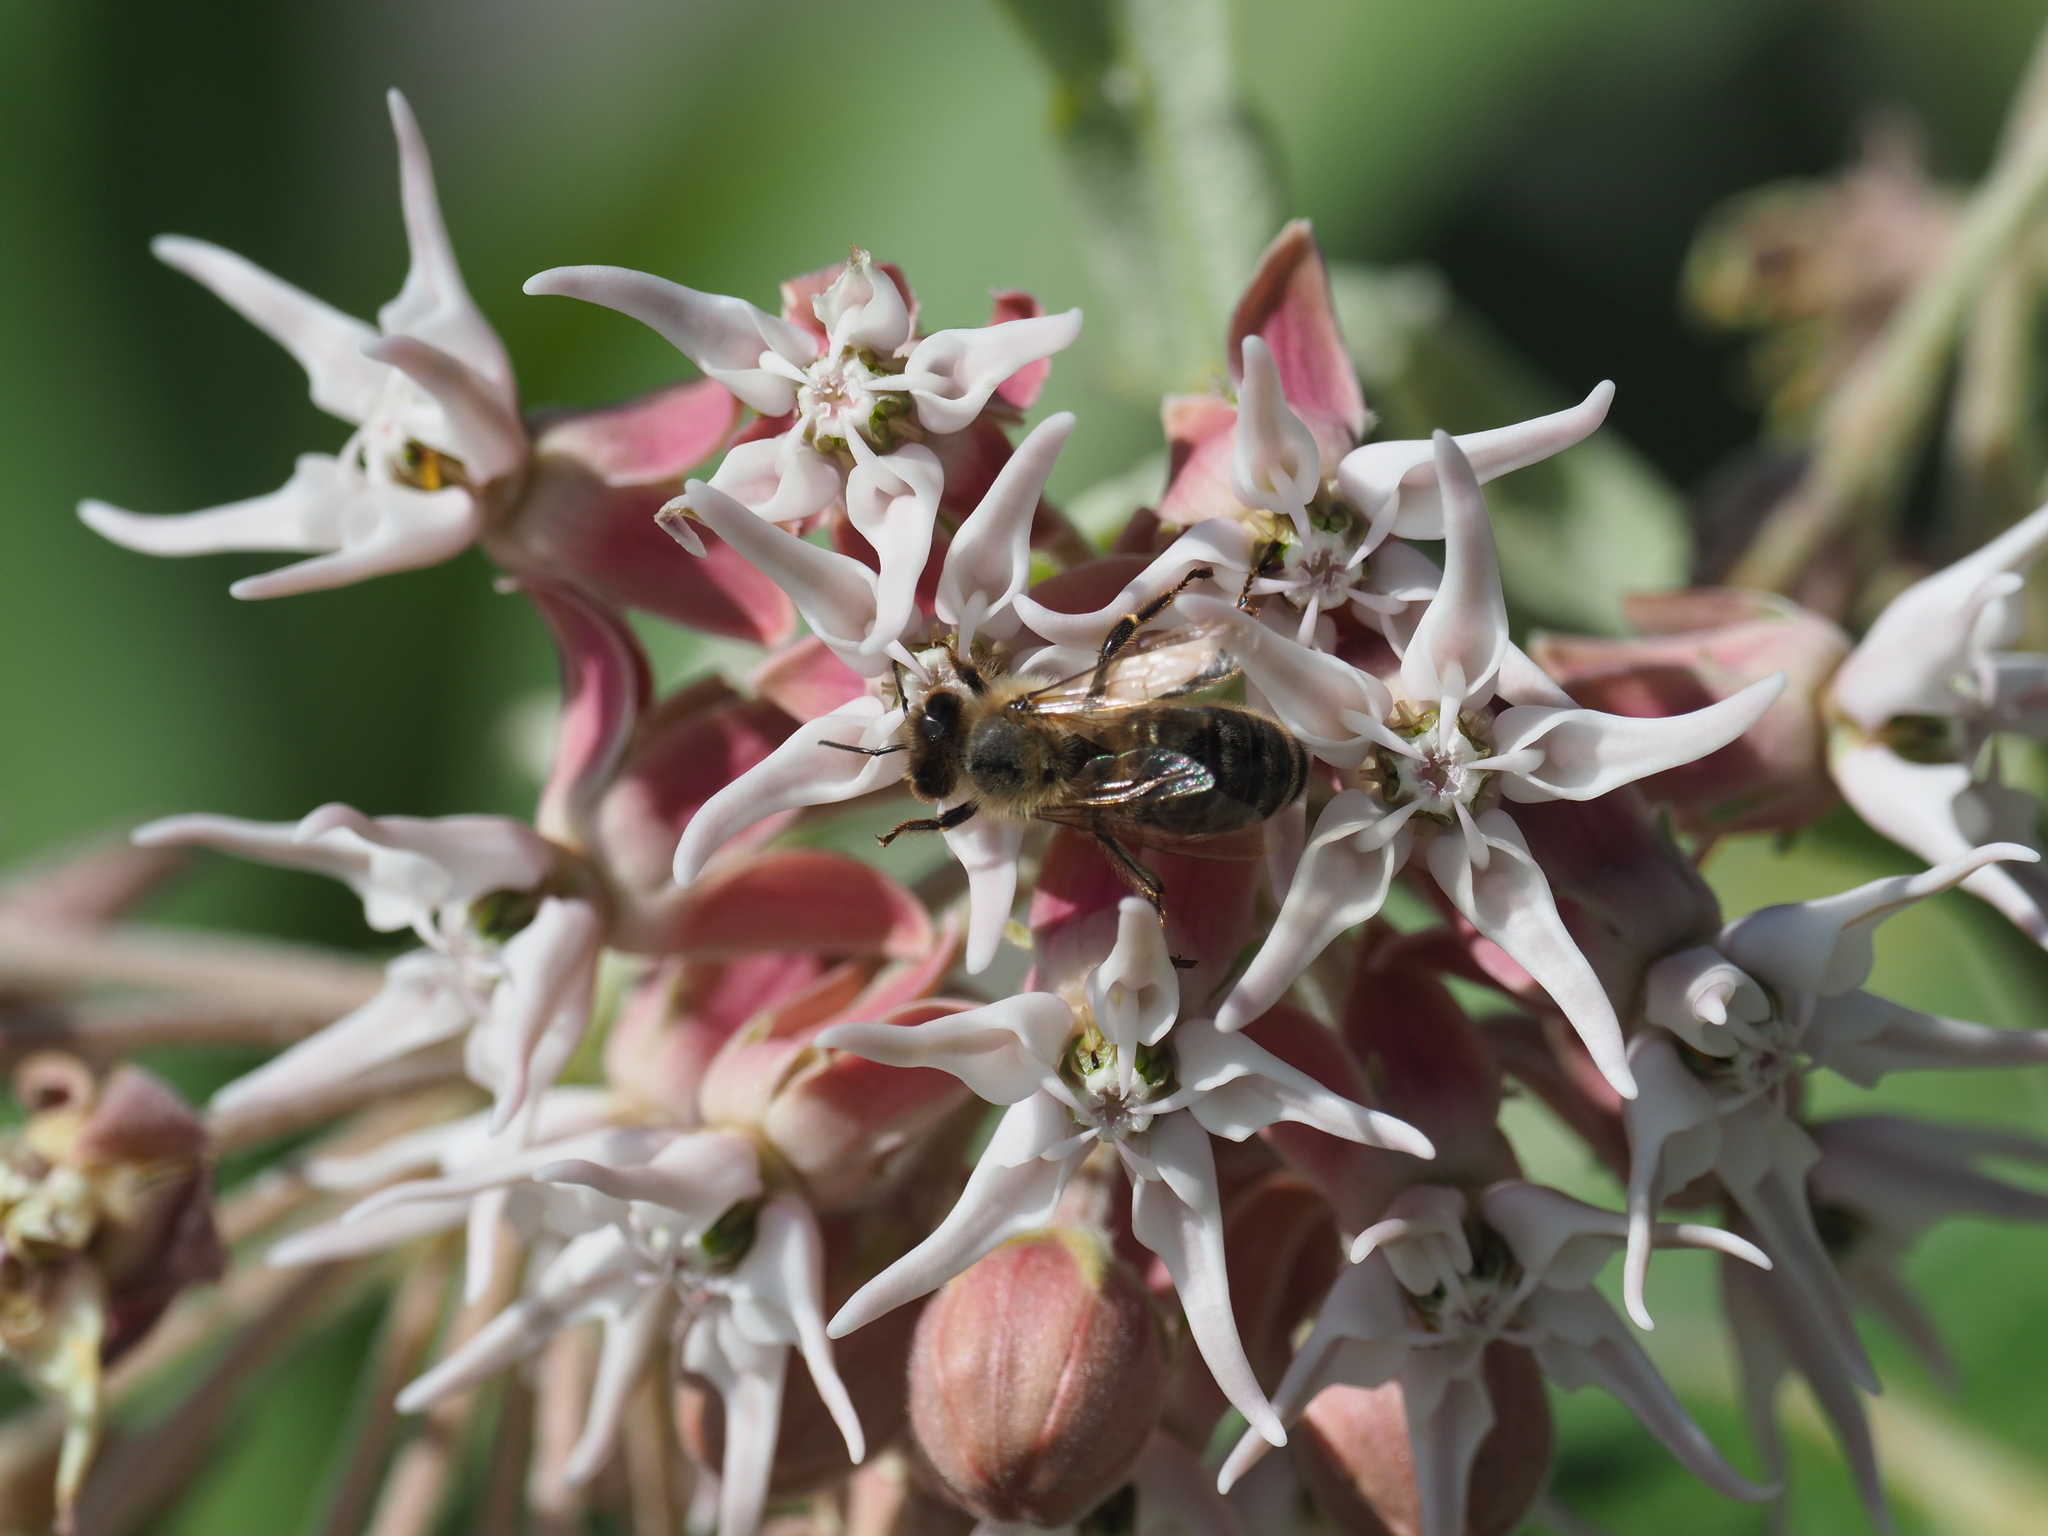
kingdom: Plantae
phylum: Tracheophyta
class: Magnoliopsida
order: Gentianales
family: Apocynaceae
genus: Asclepias
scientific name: Asclepias speciosa
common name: Showy milkweed
